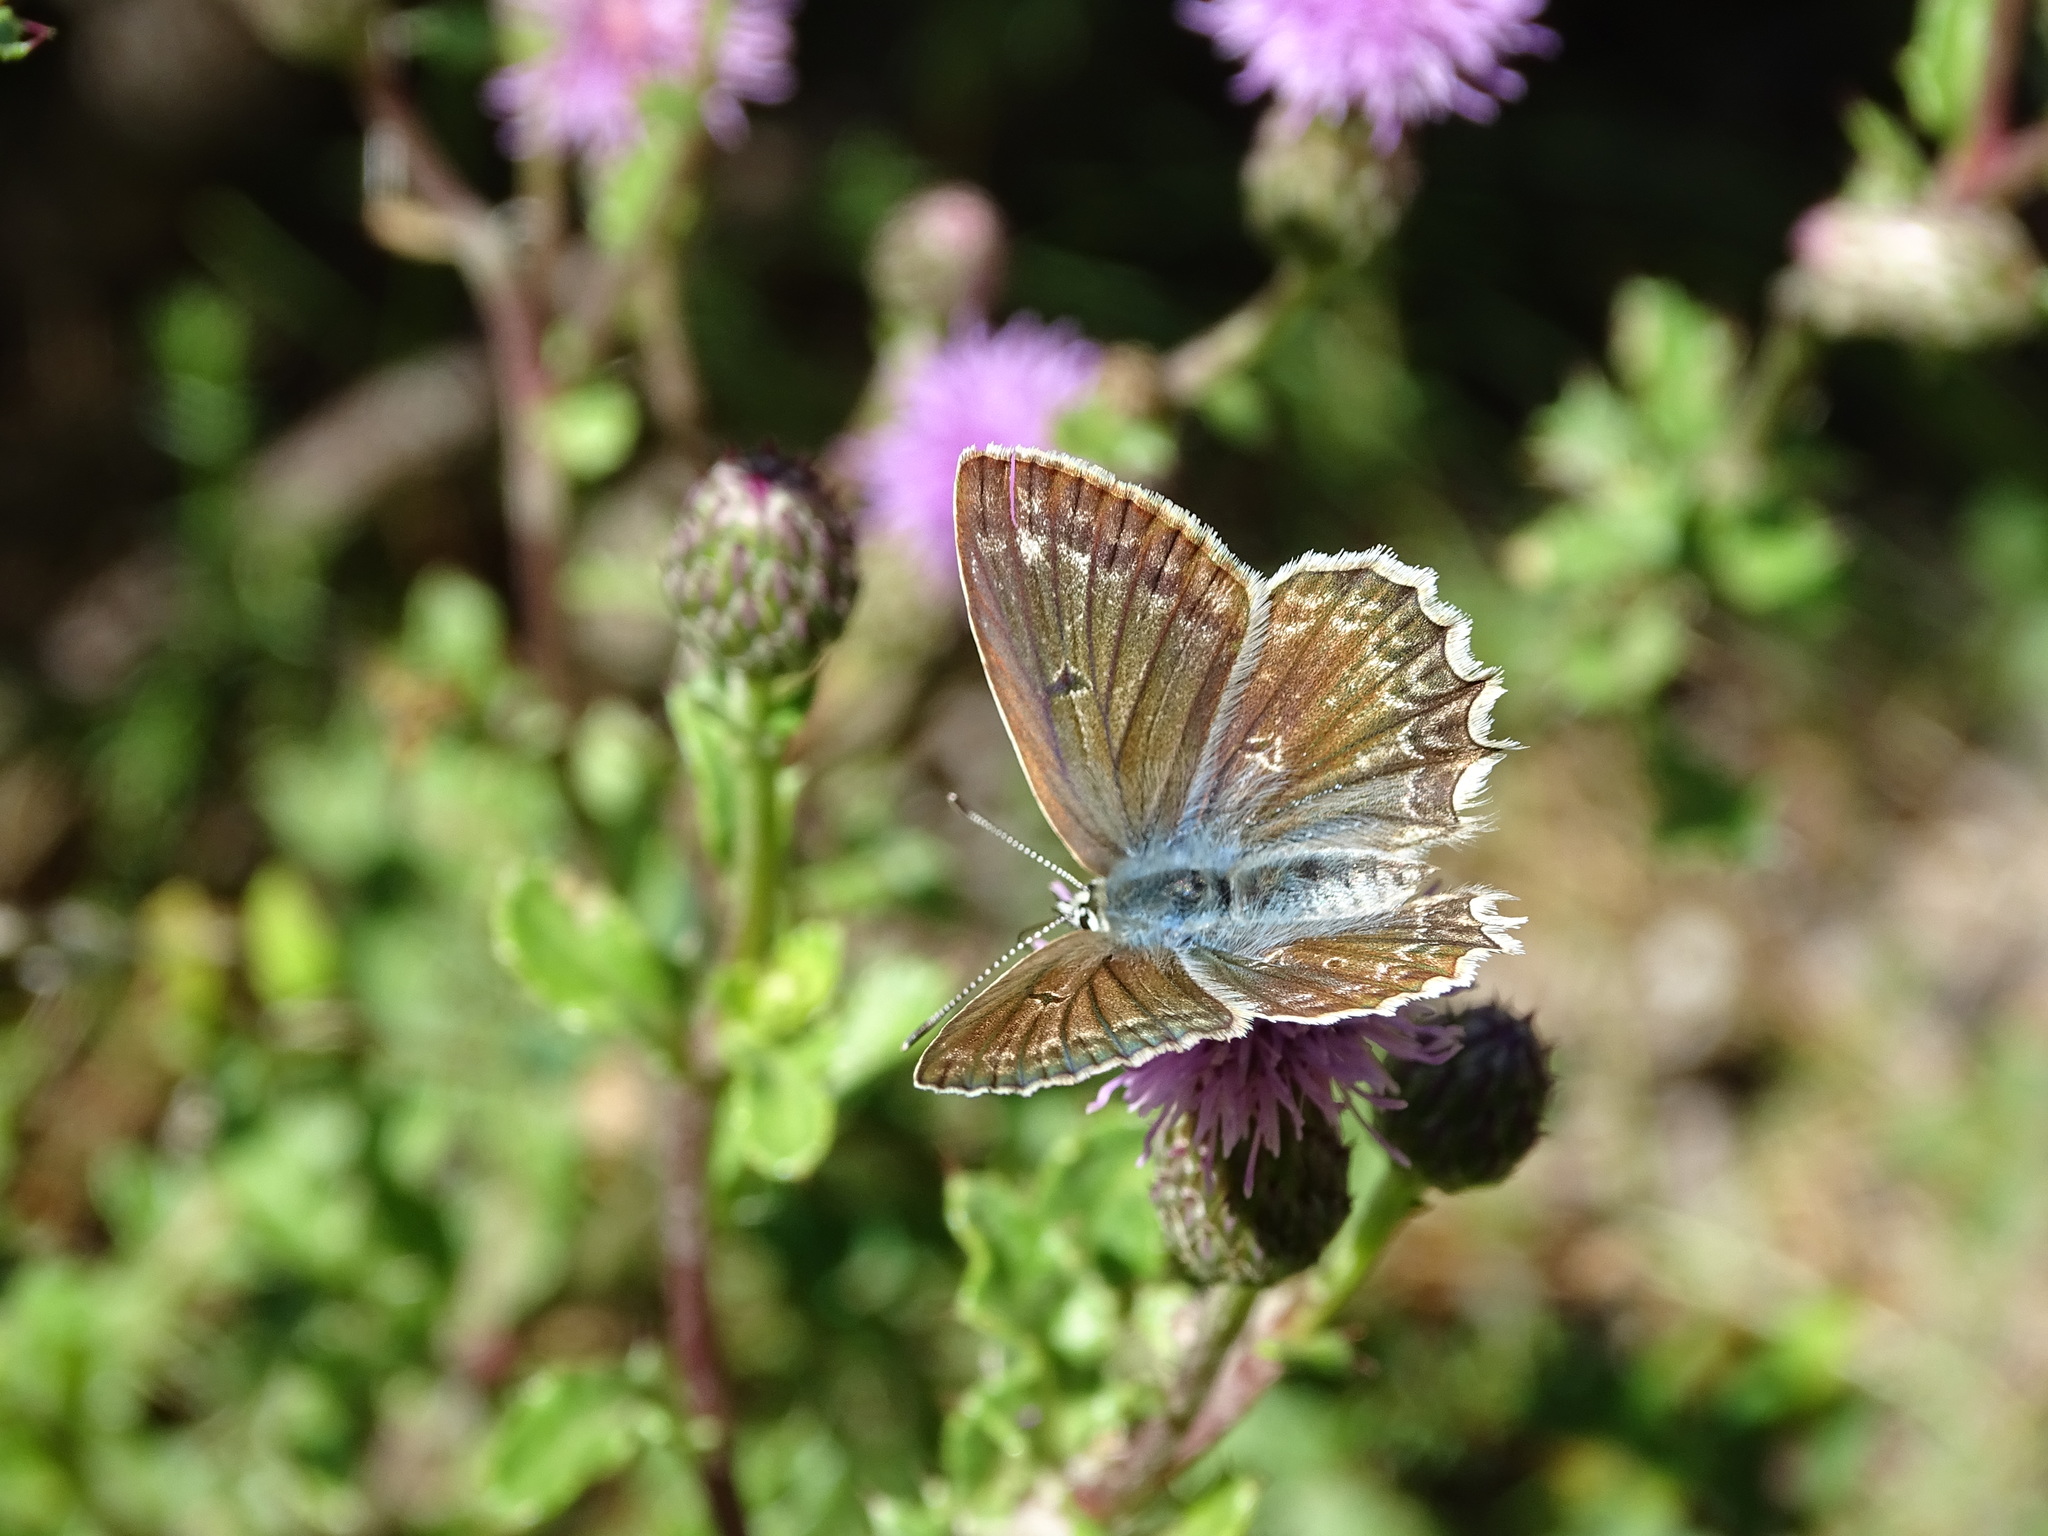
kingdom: Animalia
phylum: Arthropoda
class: Insecta
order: Lepidoptera
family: Lycaenidae
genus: Polyommatus
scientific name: Polyommatus daphnis
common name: Meleager's blue
